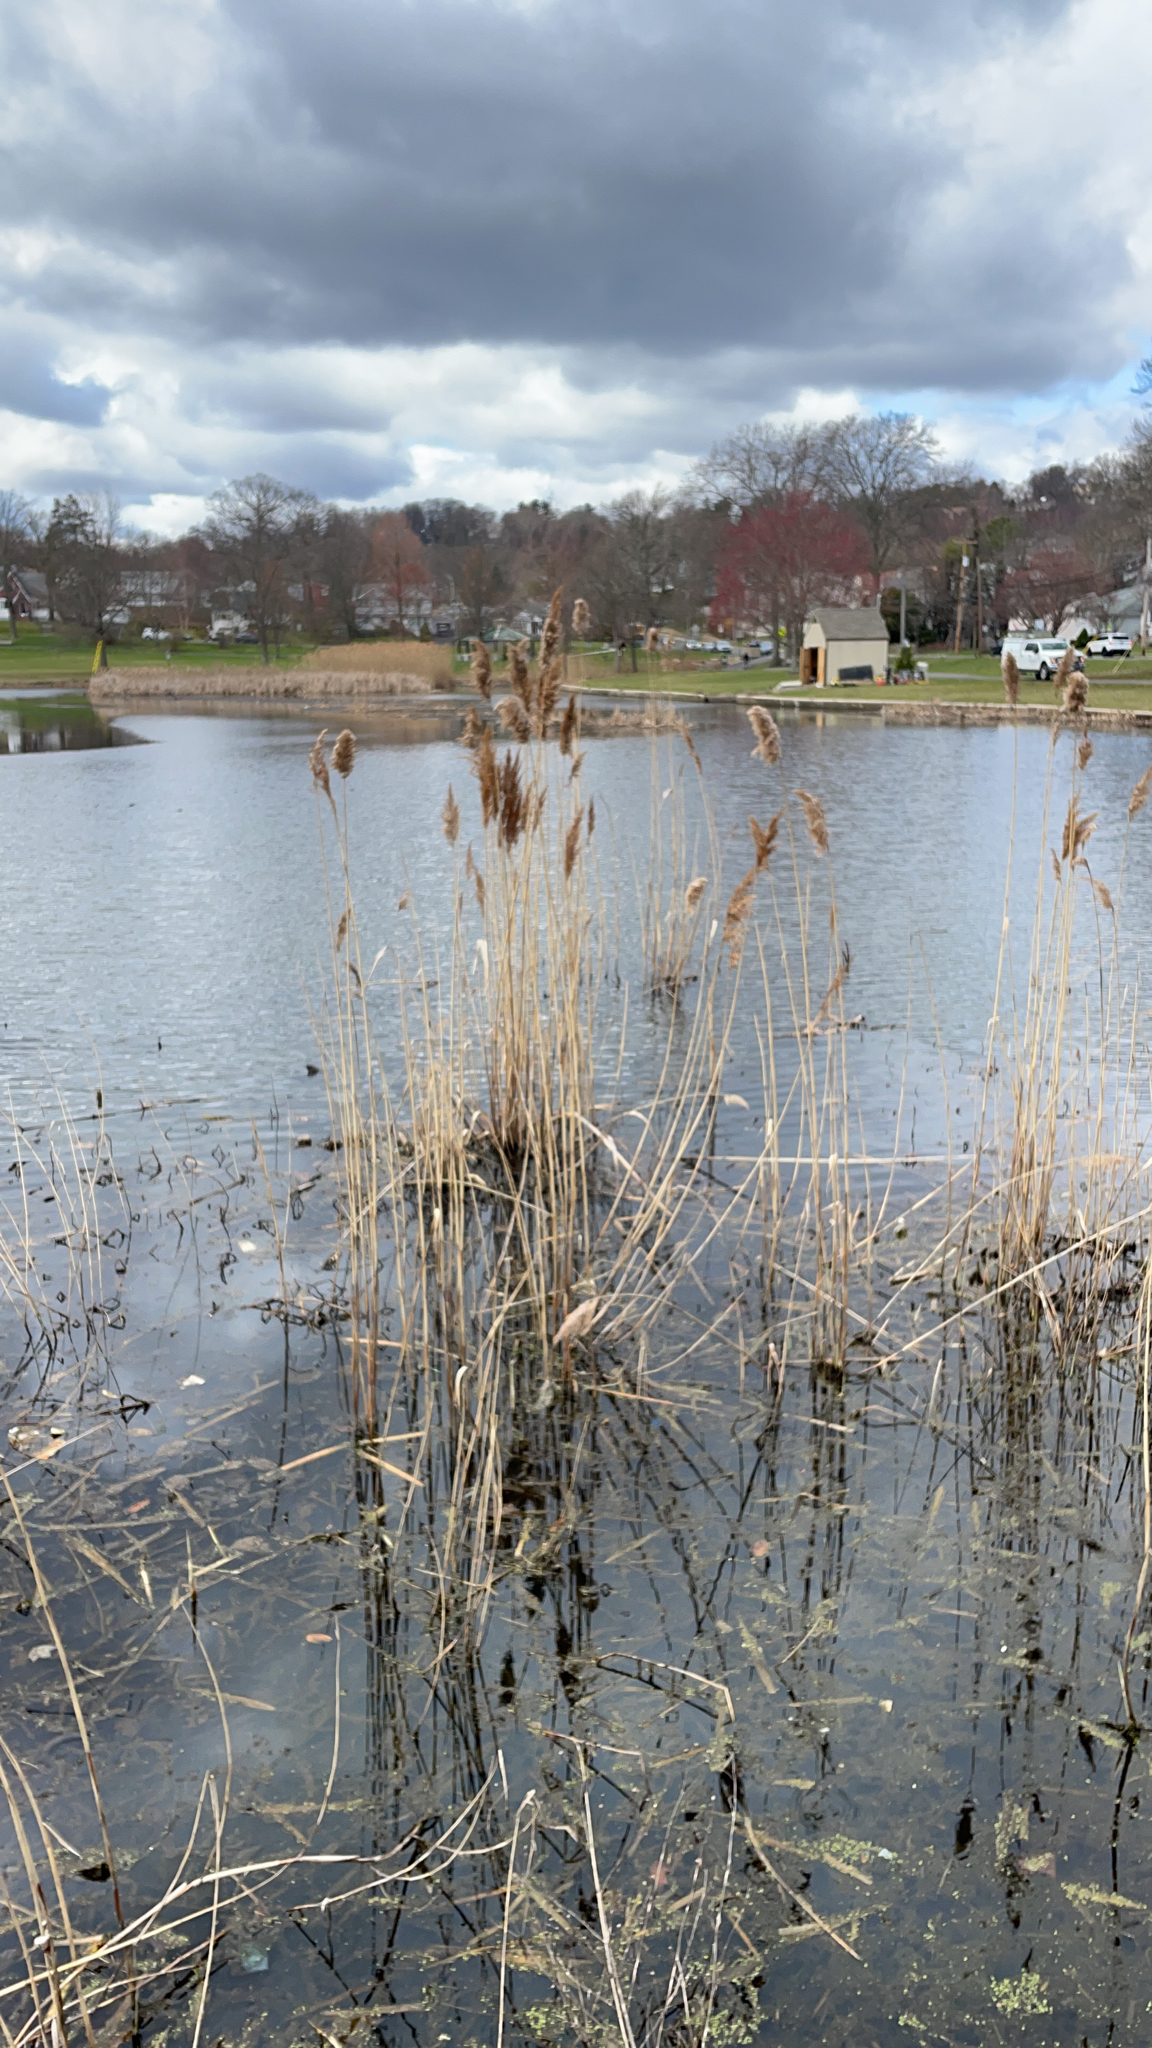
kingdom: Plantae
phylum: Tracheophyta
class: Liliopsida
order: Poales
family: Poaceae
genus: Phragmites
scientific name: Phragmites australis
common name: Common reed
